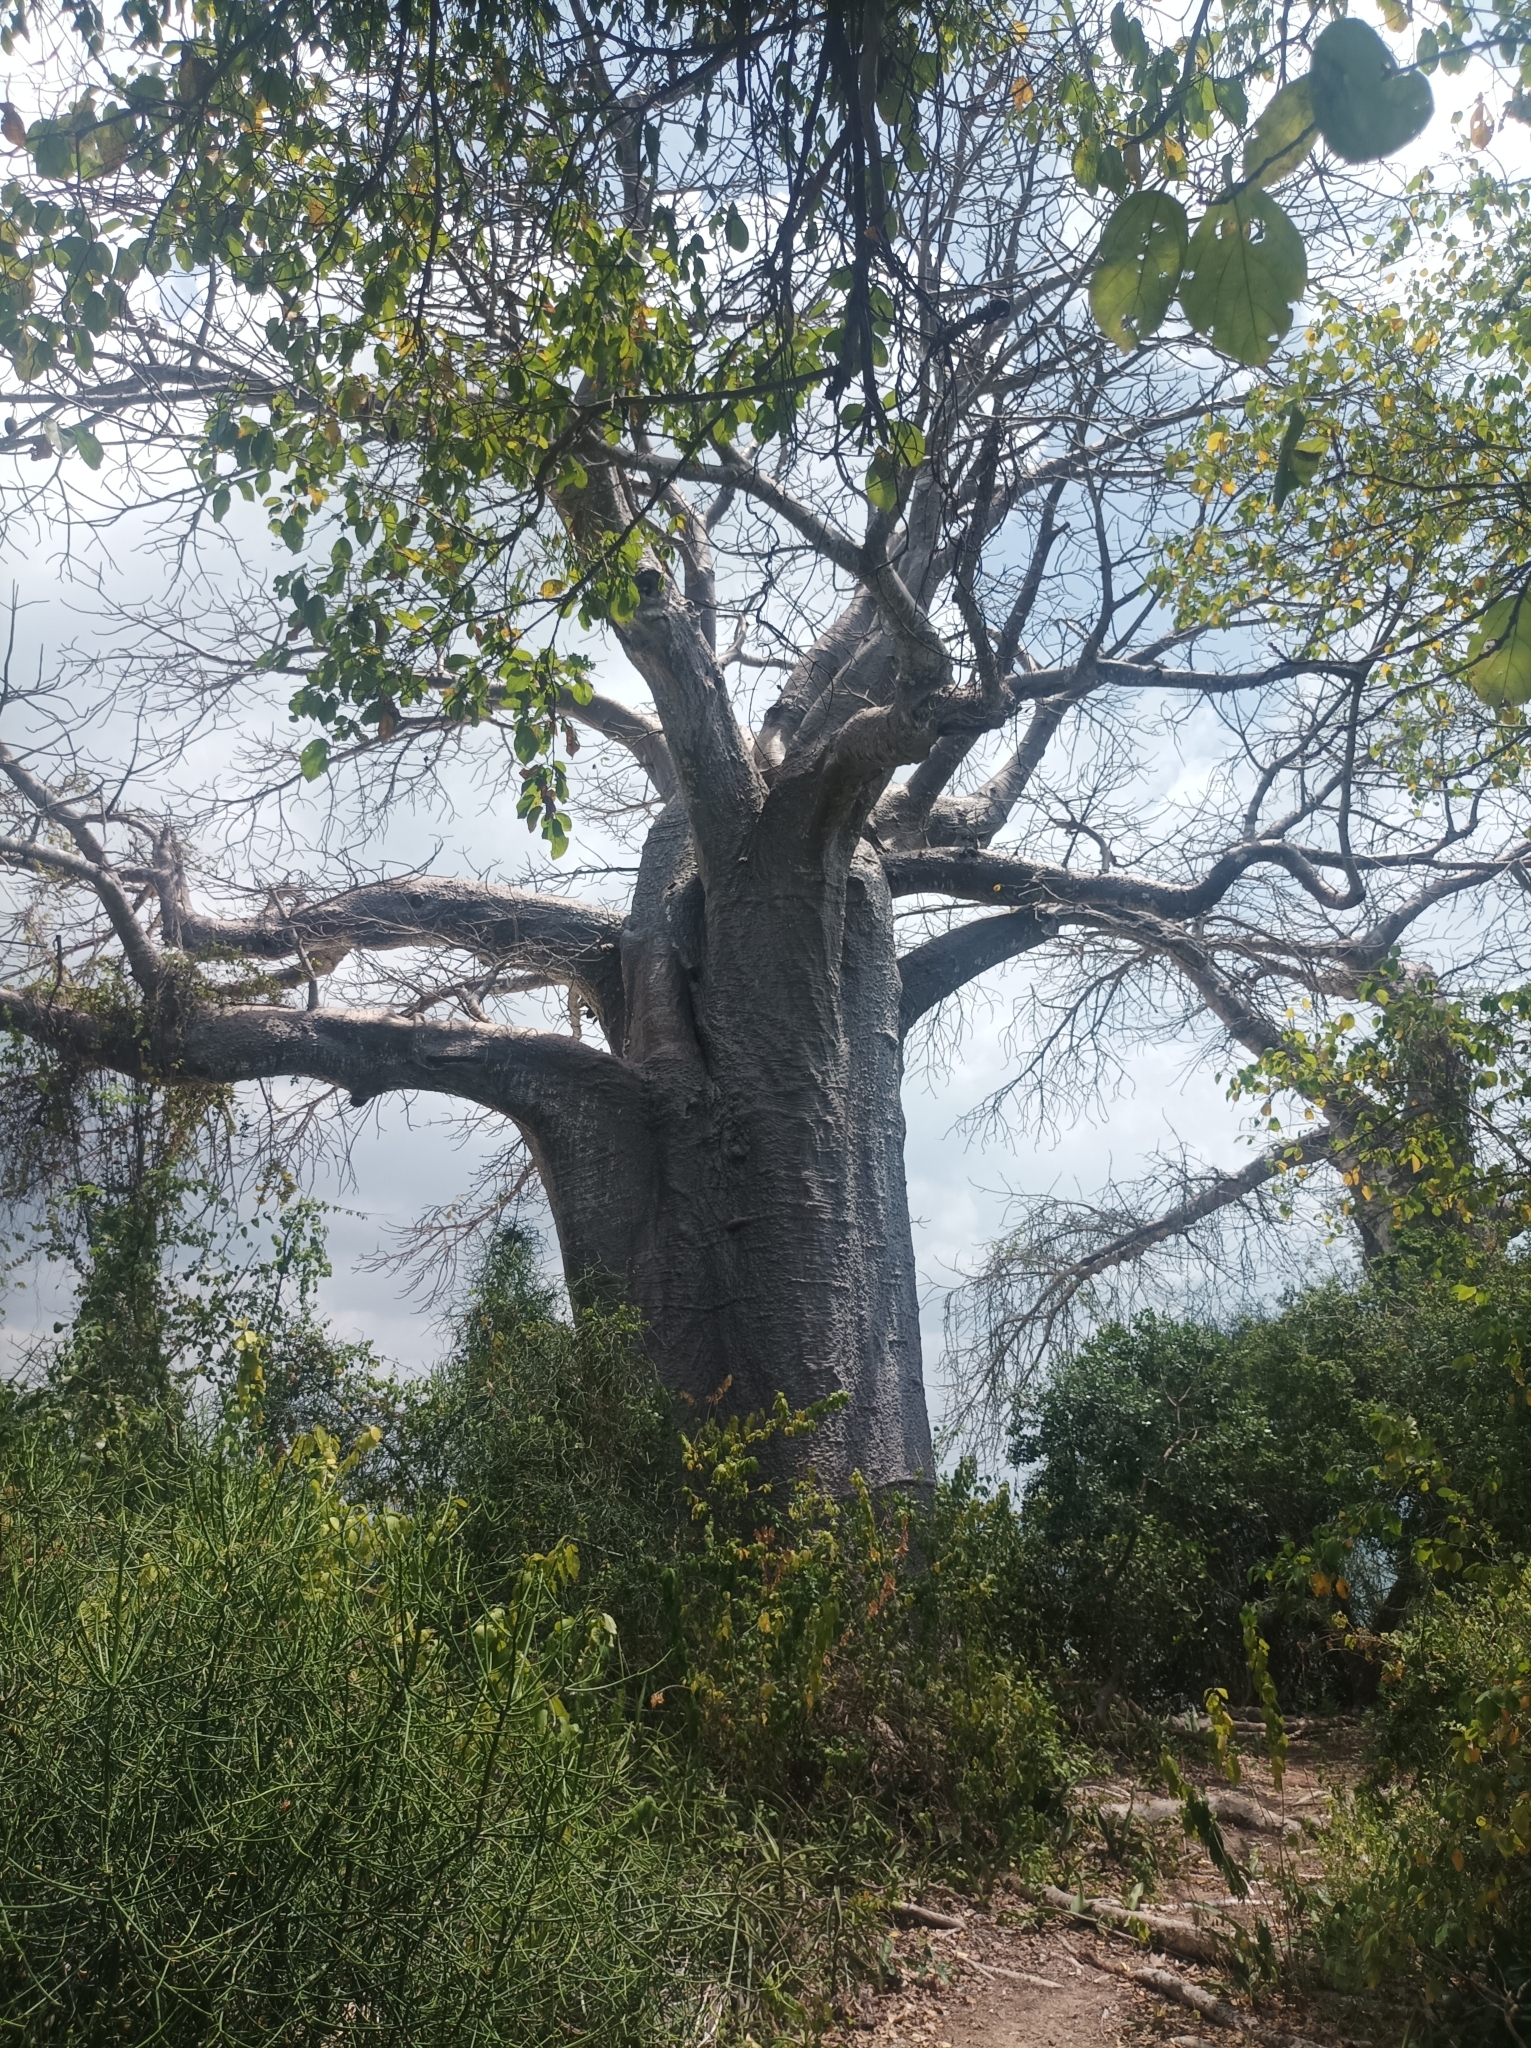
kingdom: Plantae
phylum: Tracheophyta
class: Magnoliopsida
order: Malvales
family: Malvaceae
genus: Adansonia
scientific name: Adansonia digitata
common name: Dead-rat-tree
